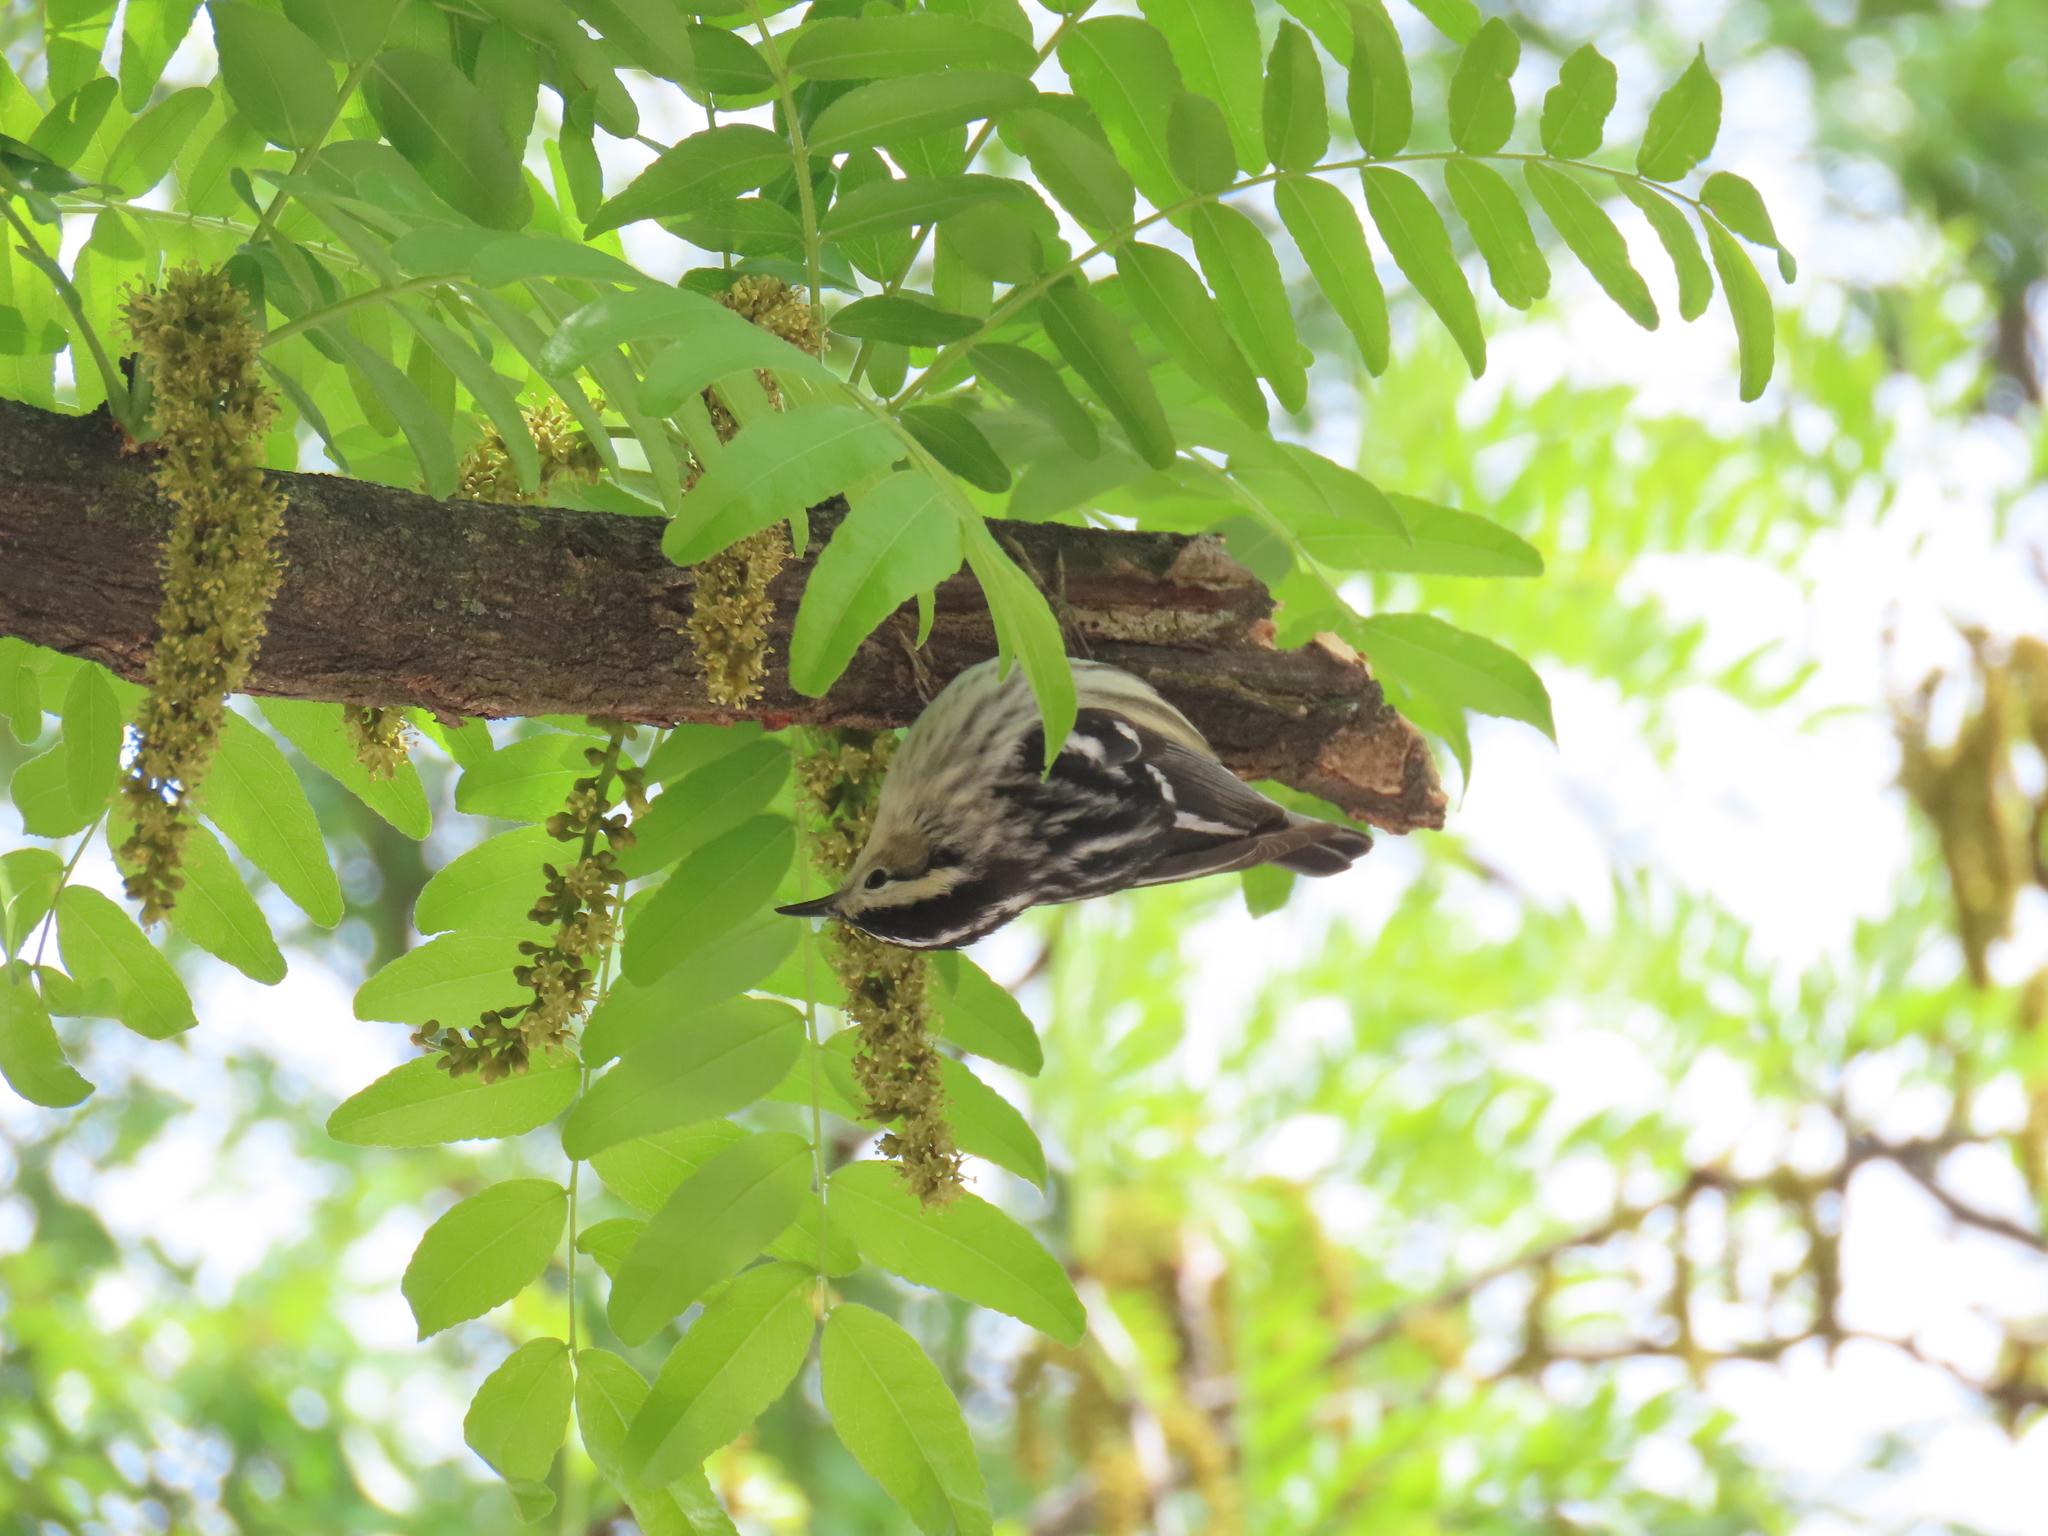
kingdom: Animalia
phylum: Chordata
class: Aves
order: Passeriformes
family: Parulidae
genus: Mniotilta
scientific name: Mniotilta varia
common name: Black-and-white warbler
